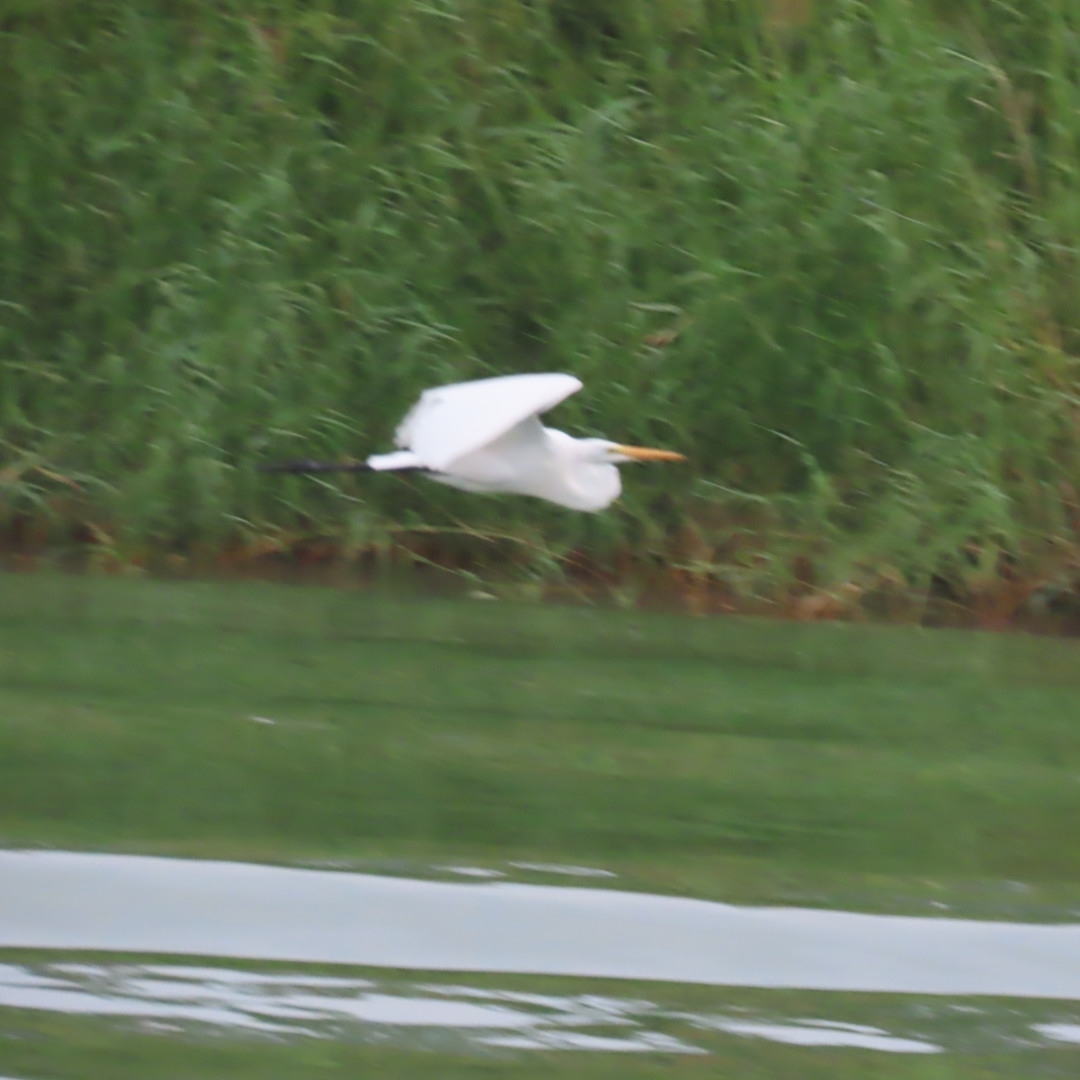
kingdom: Animalia
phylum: Chordata
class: Aves
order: Pelecaniformes
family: Ardeidae
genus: Ardea
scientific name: Ardea alba
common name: Great egret
